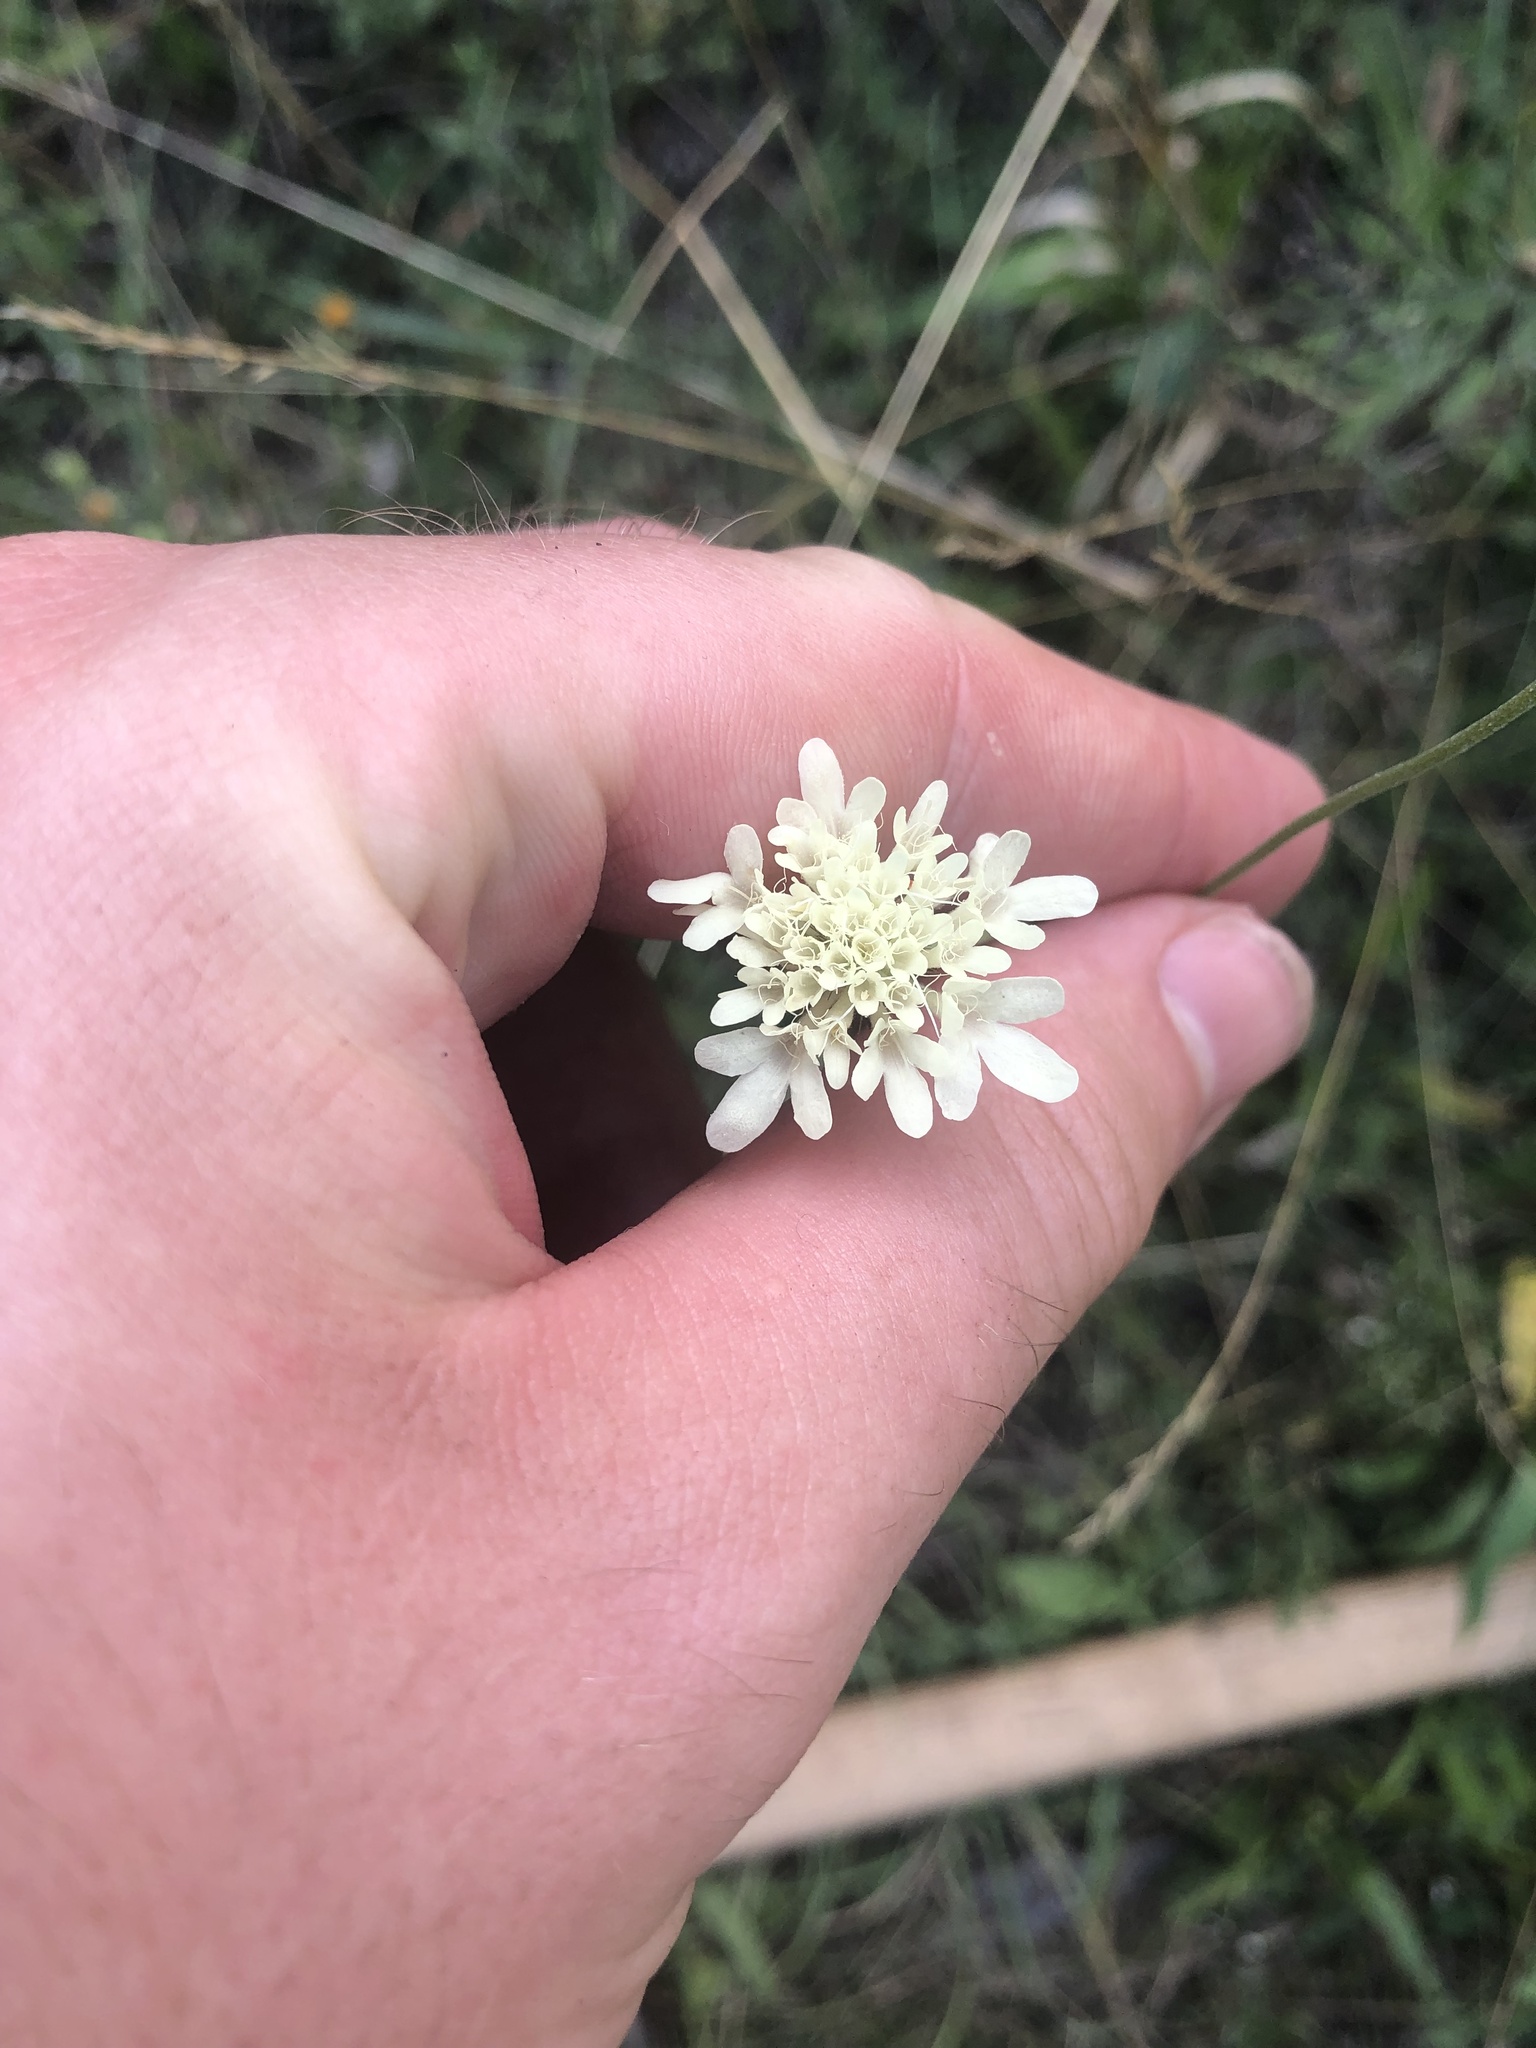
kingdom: Plantae
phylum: Tracheophyta
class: Magnoliopsida
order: Dipsacales
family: Caprifoliaceae
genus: Scabiosa
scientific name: Scabiosa ochroleuca
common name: Cream pincushions
